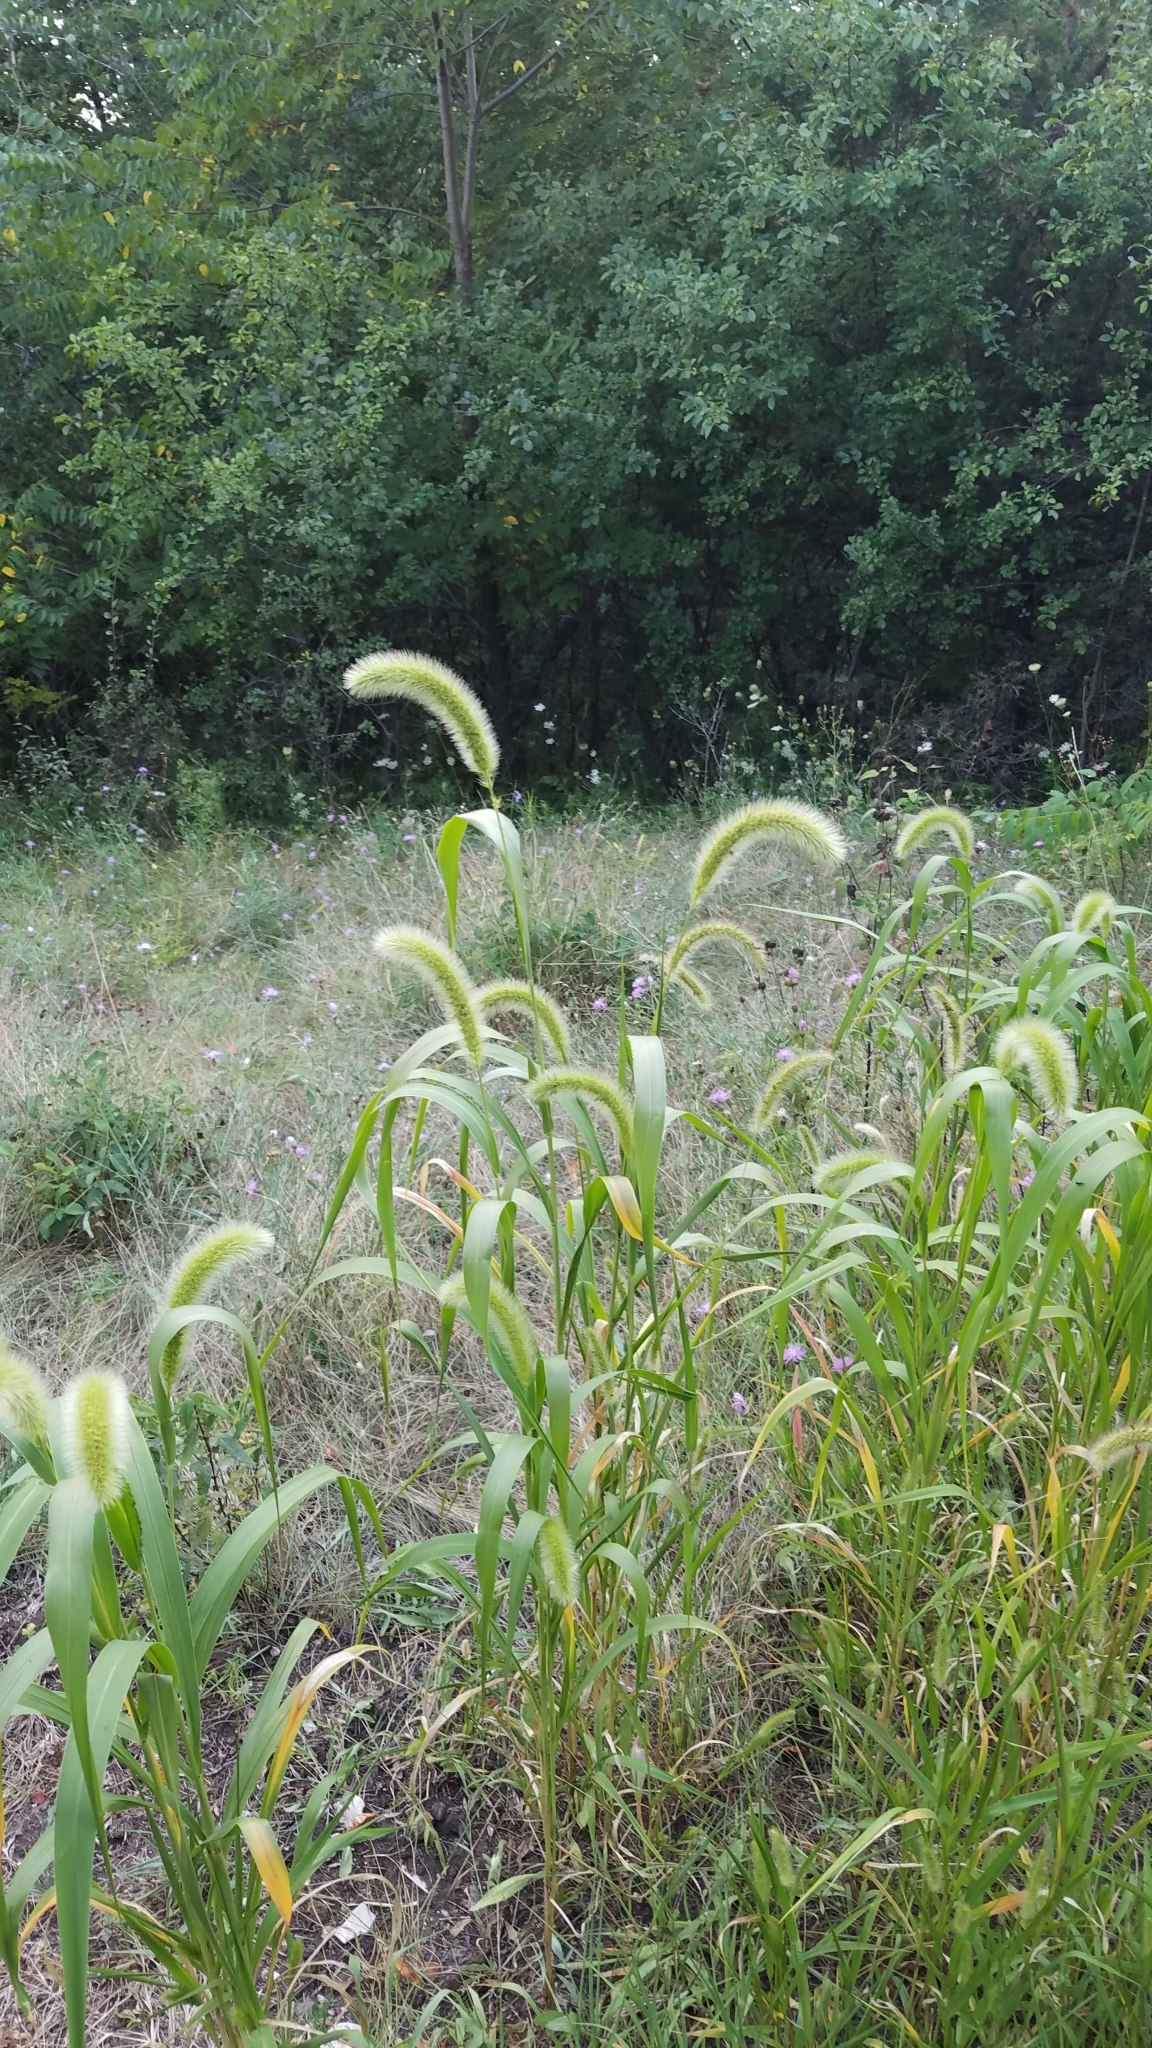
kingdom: Plantae
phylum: Tracheophyta
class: Liliopsida
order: Poales
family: Poaceae
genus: Setaria
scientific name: Setaria faberi
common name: Nodding bristle-grass
